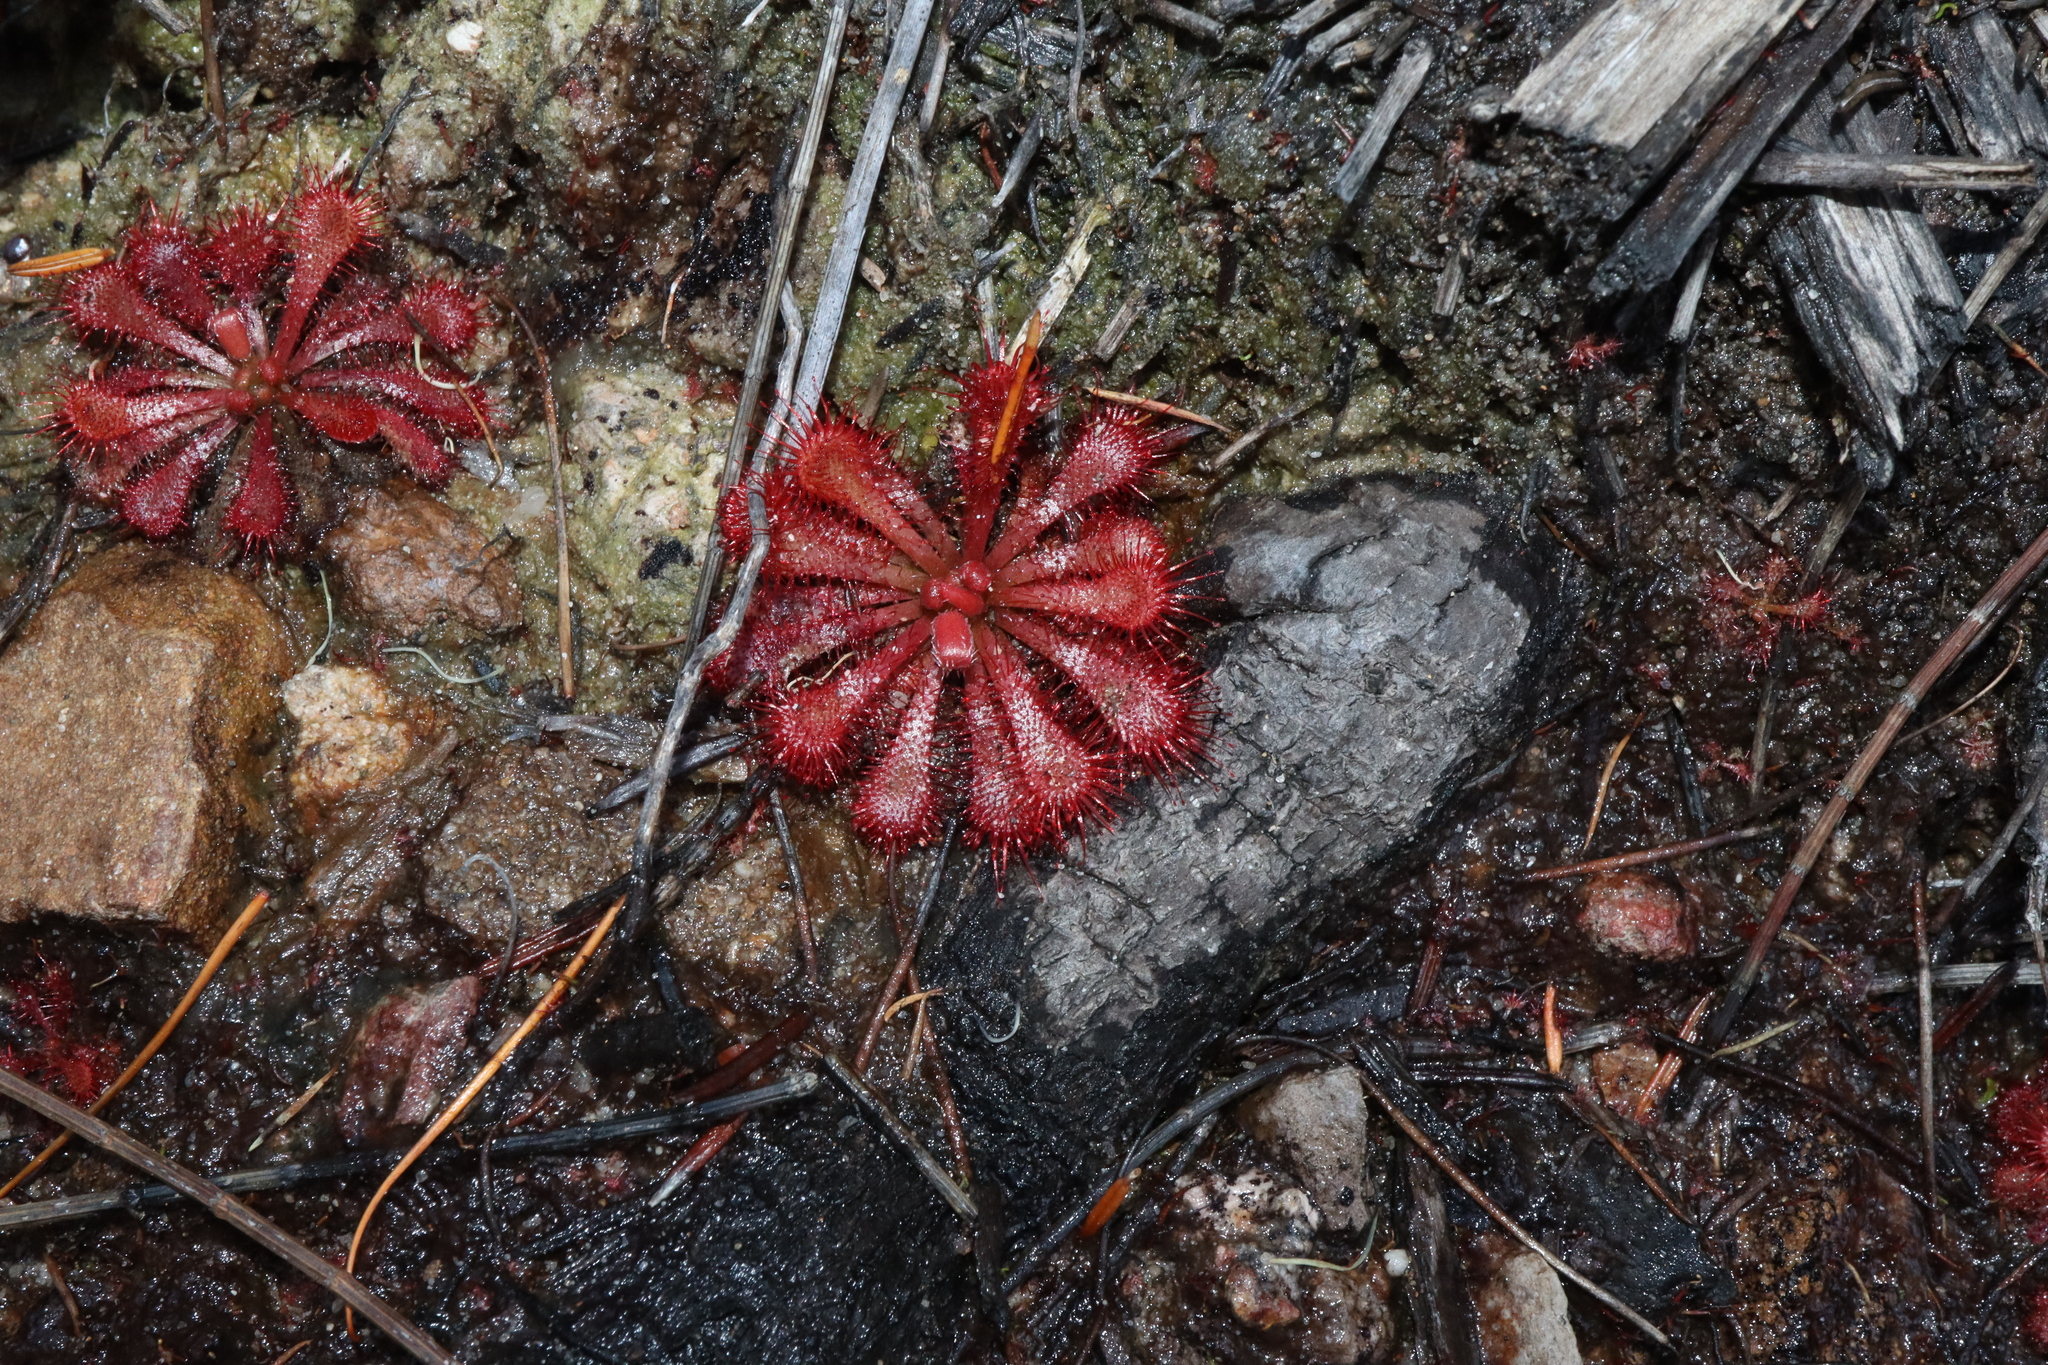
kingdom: Plantae
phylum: Tracheophyta
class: Magnoliopsida
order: Caryophyllales
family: Droseraceae
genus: Drosera
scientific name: Drosera spatulata
